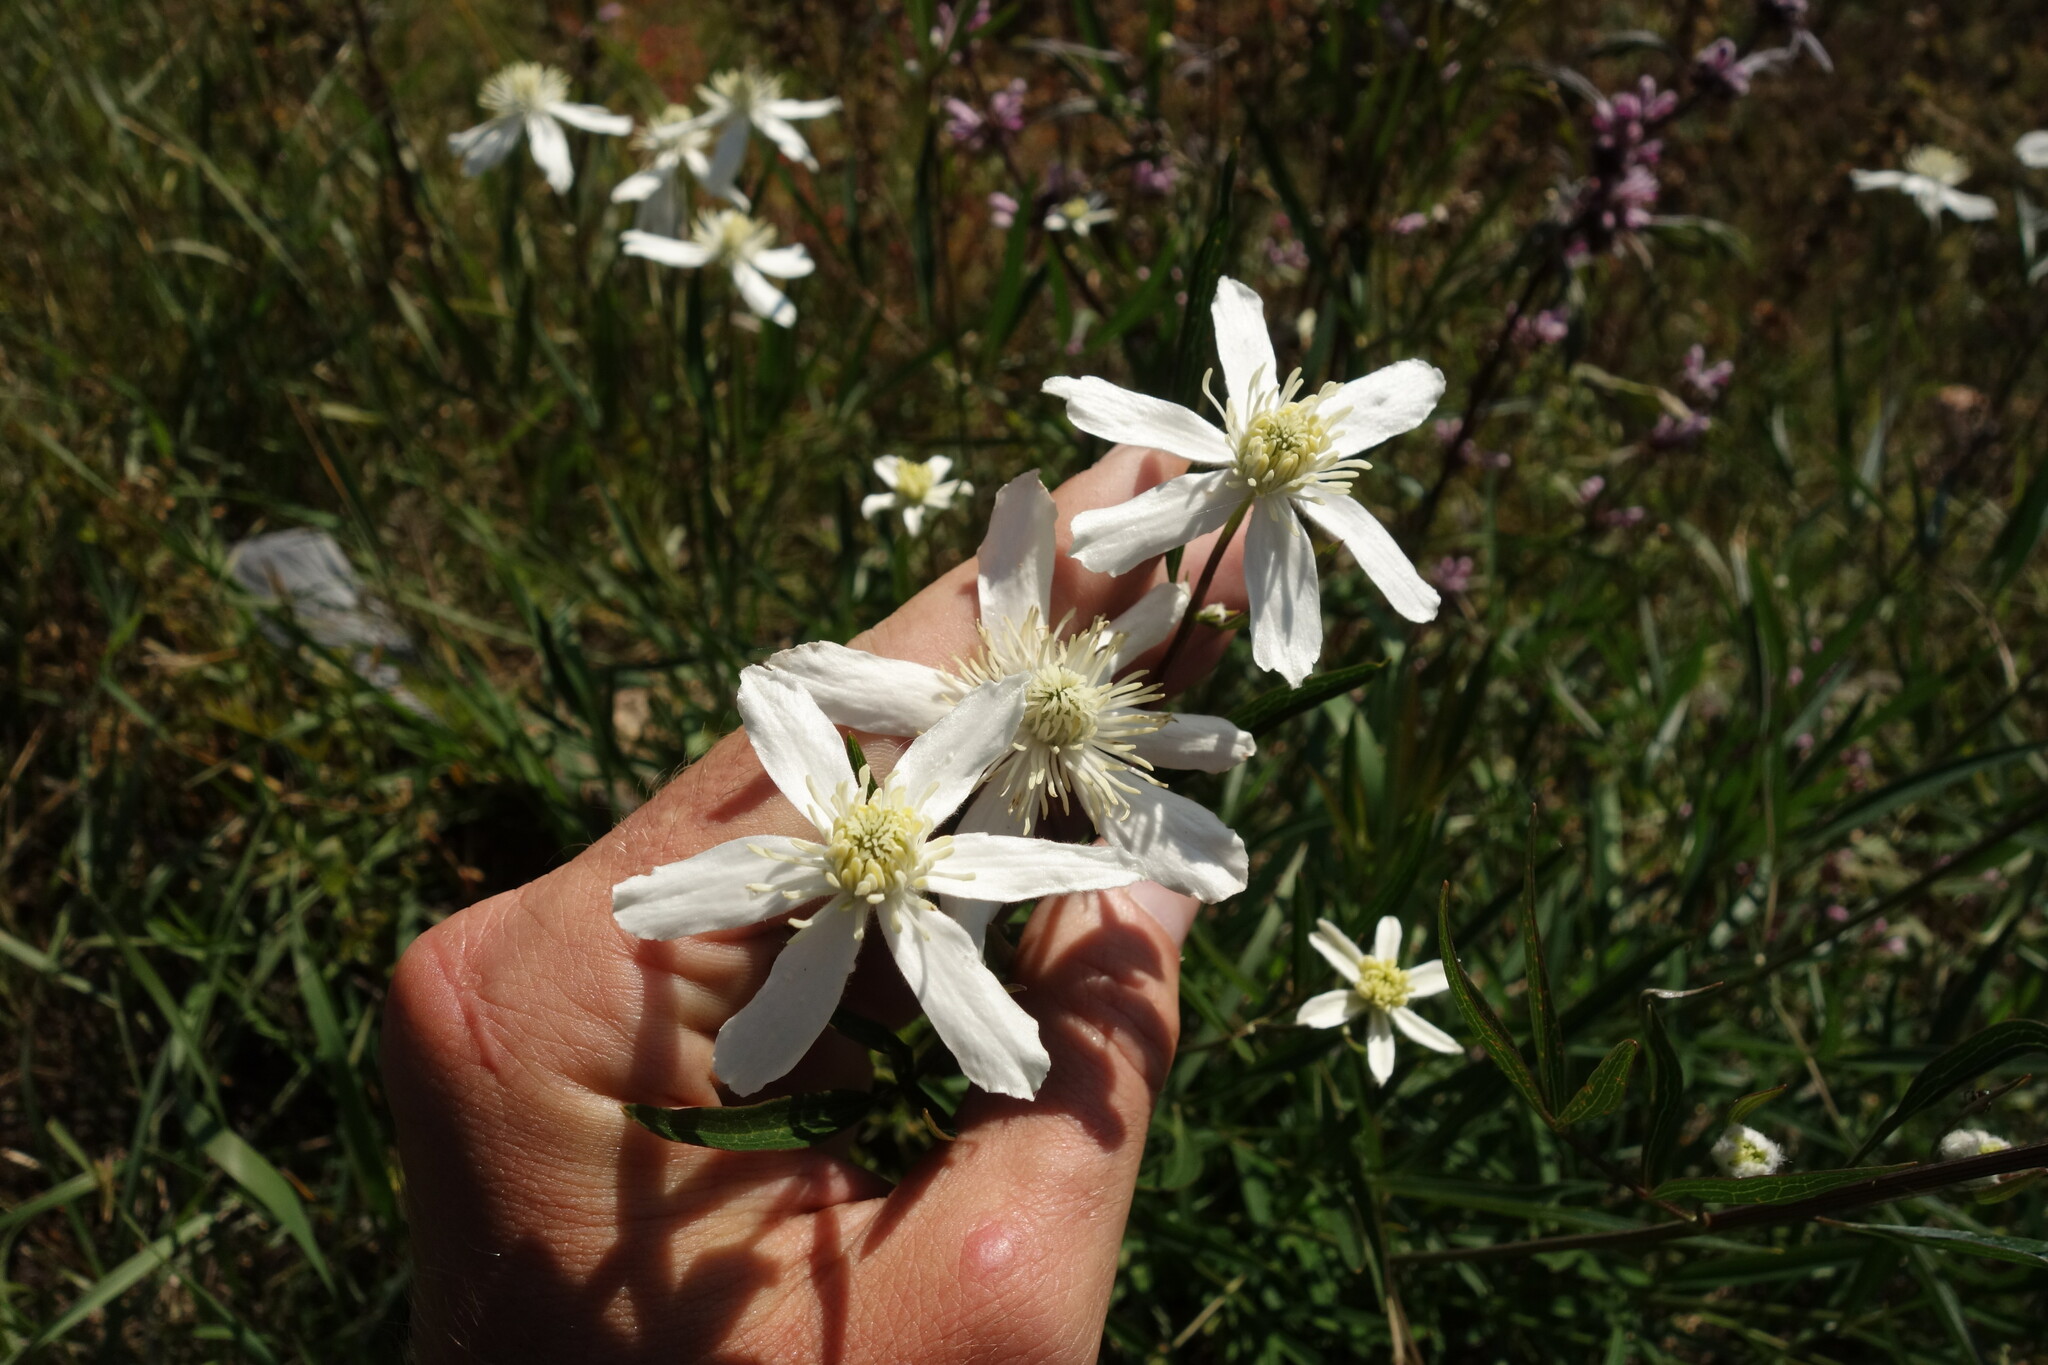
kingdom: Plantae
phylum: Tracheophyta
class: Magnoliopsida
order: Ranunculales
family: Ranunculaceae
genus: Clematis
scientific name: Clematis hexapetala
